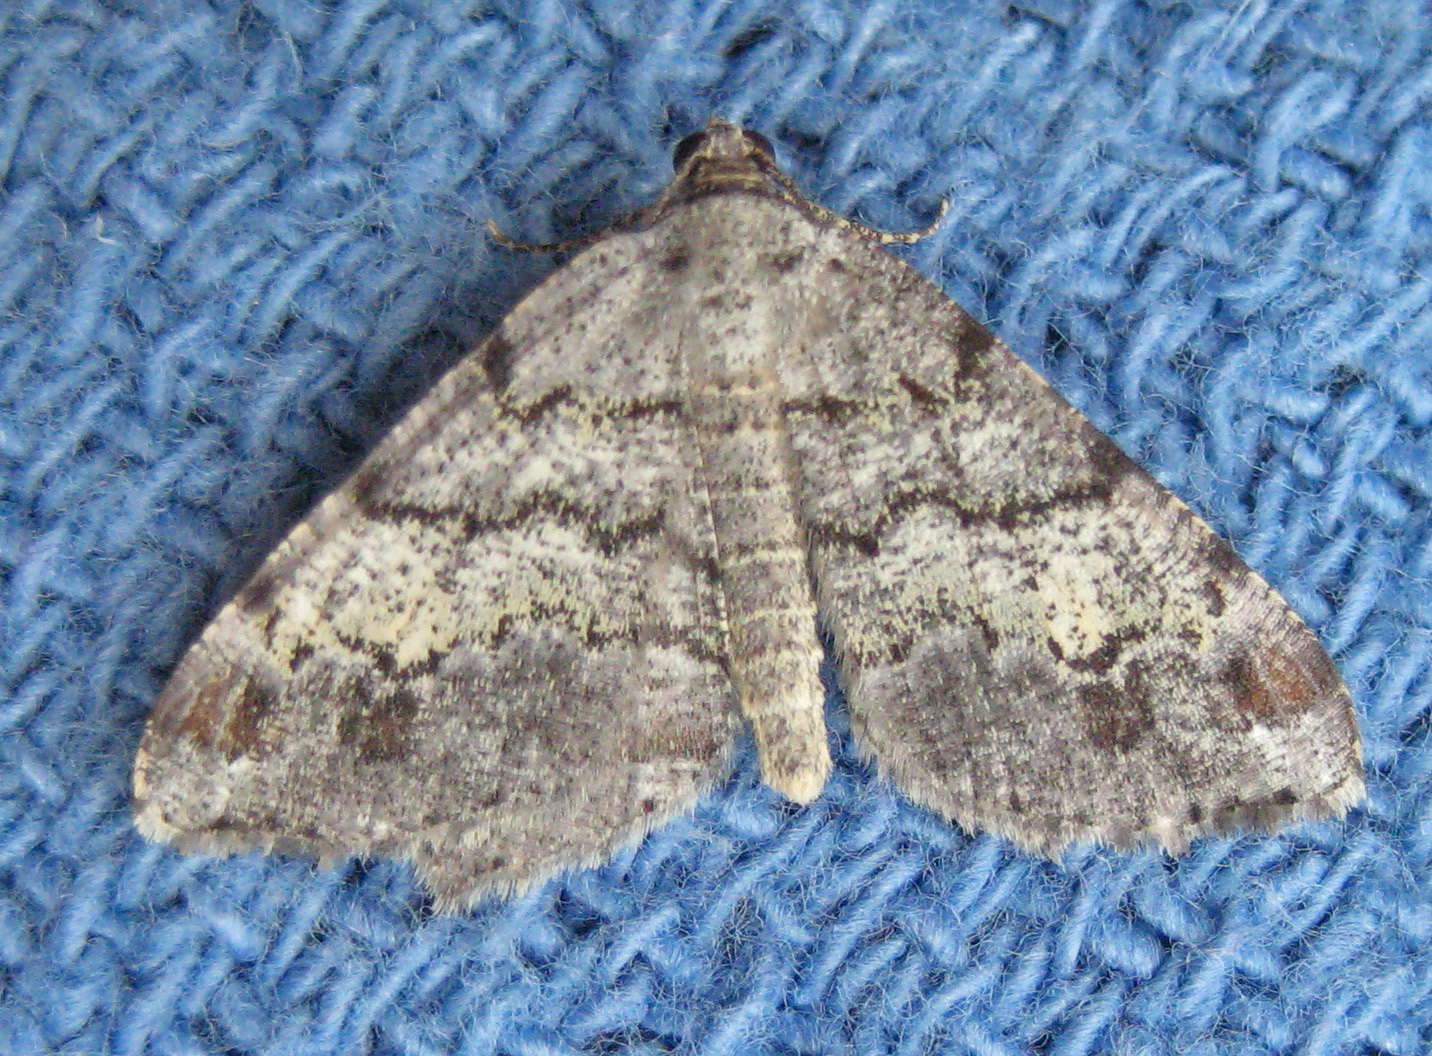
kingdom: Animalia
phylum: Arthropoda
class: Insecta
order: Lepidoptera
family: Geometridae
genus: Macaria
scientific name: Macaria granitata
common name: Granite moth
